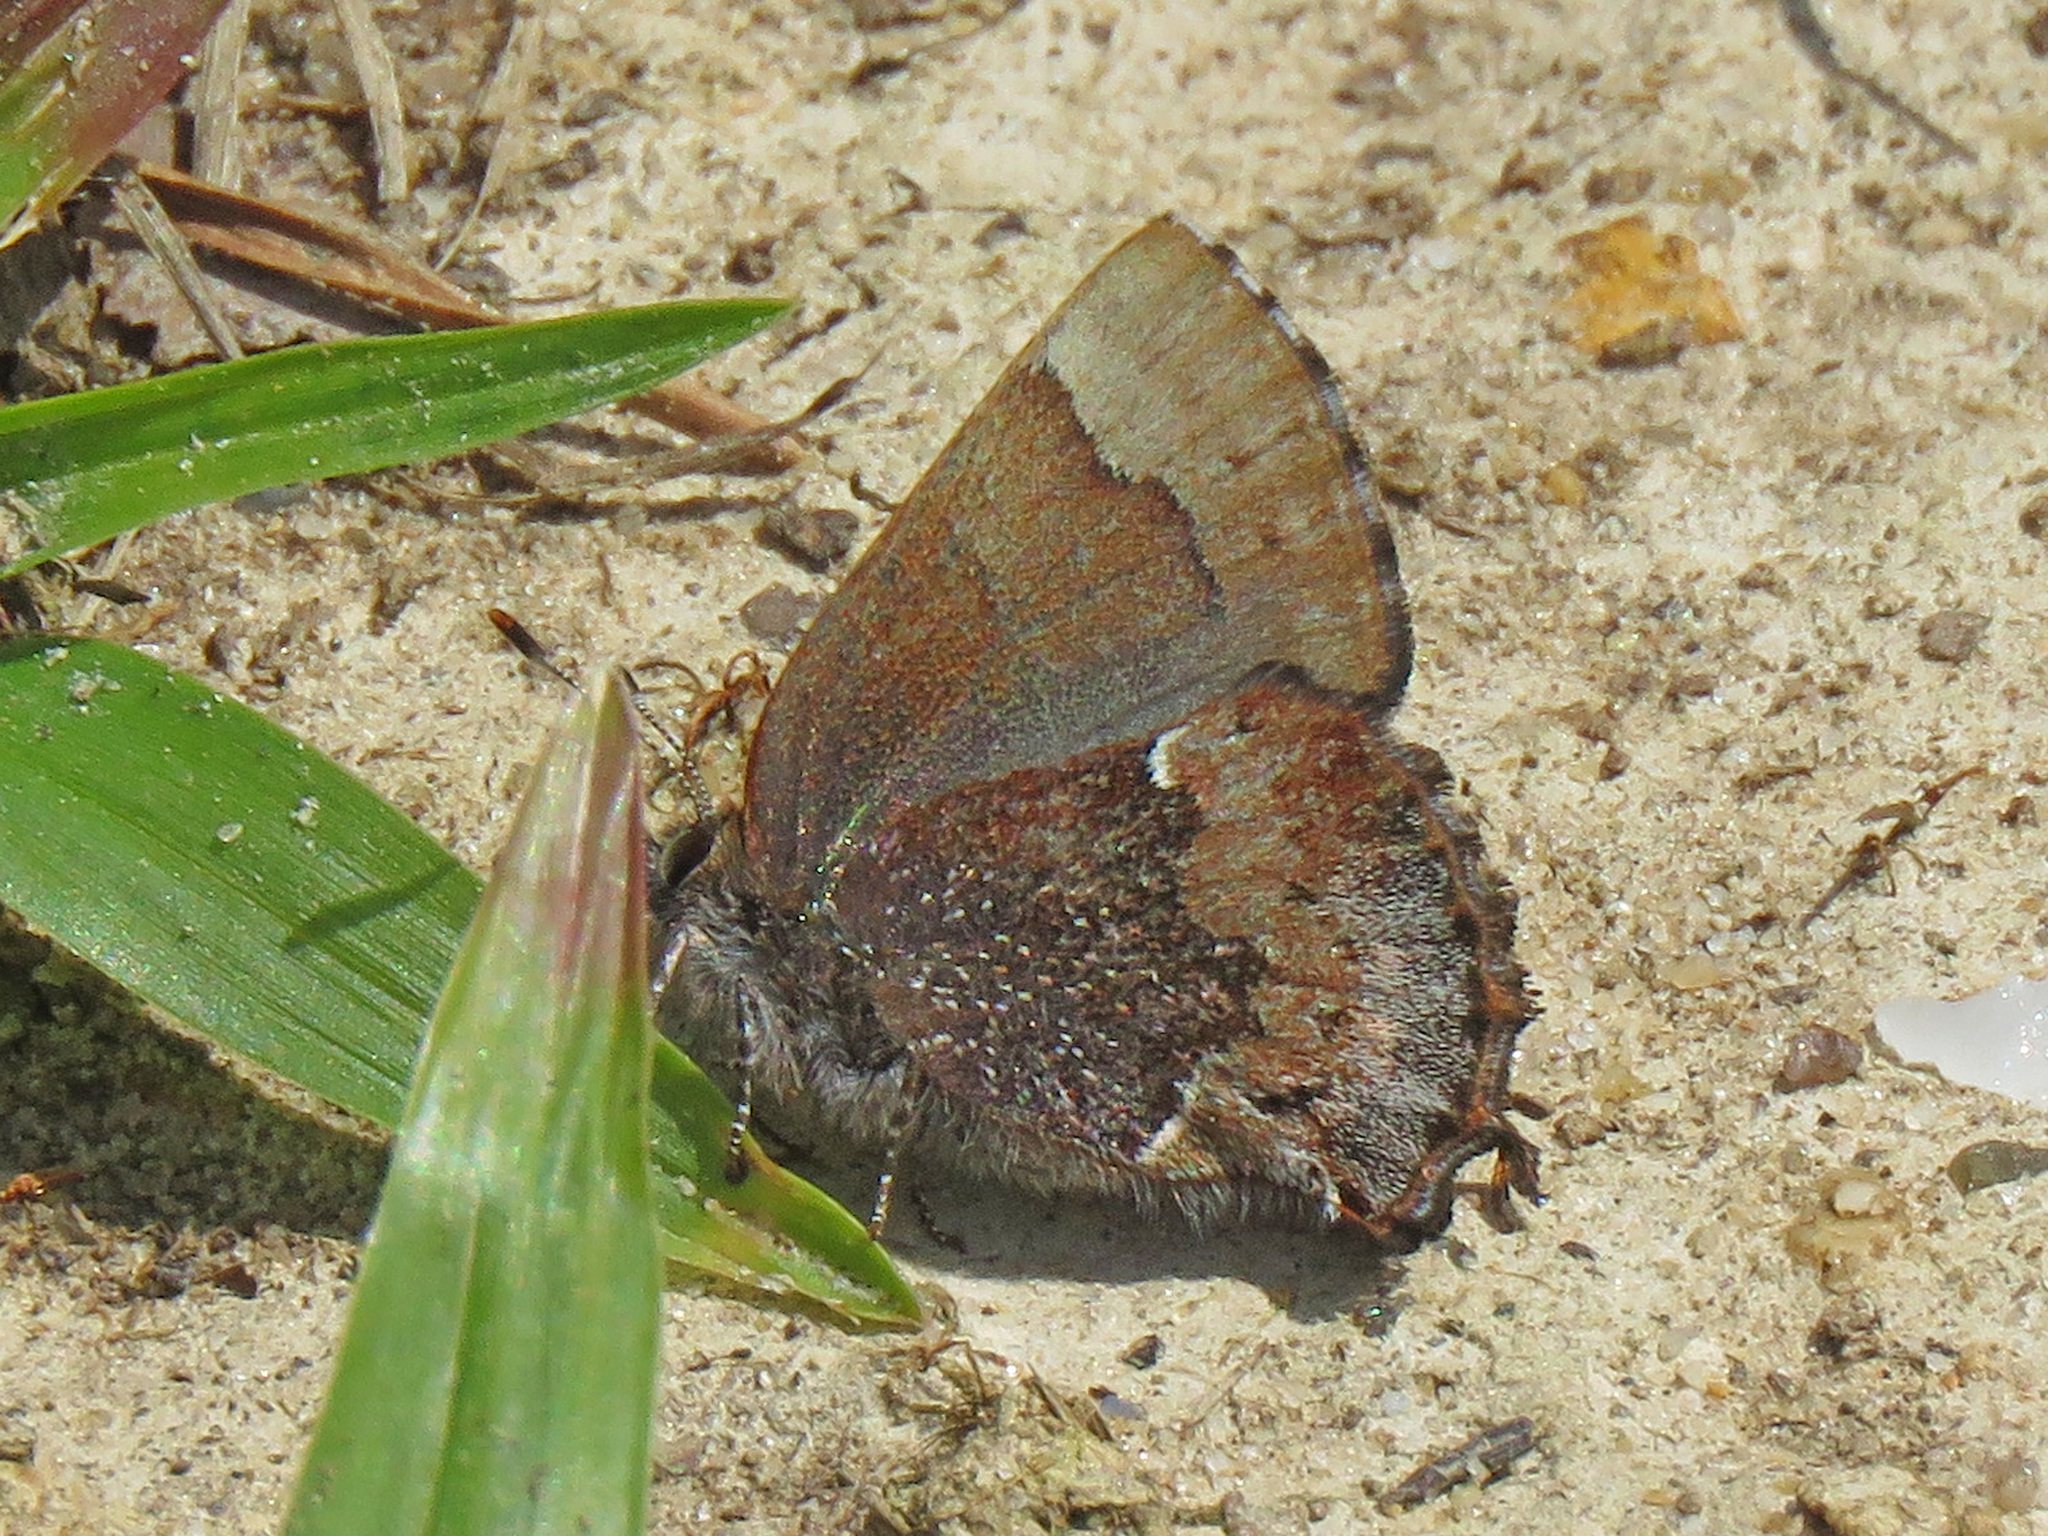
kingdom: Animalia
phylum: Arthropoda
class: Insecta
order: Lepidoptera
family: Lycaenidae
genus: Incisalia
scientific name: Incisalia henrici
